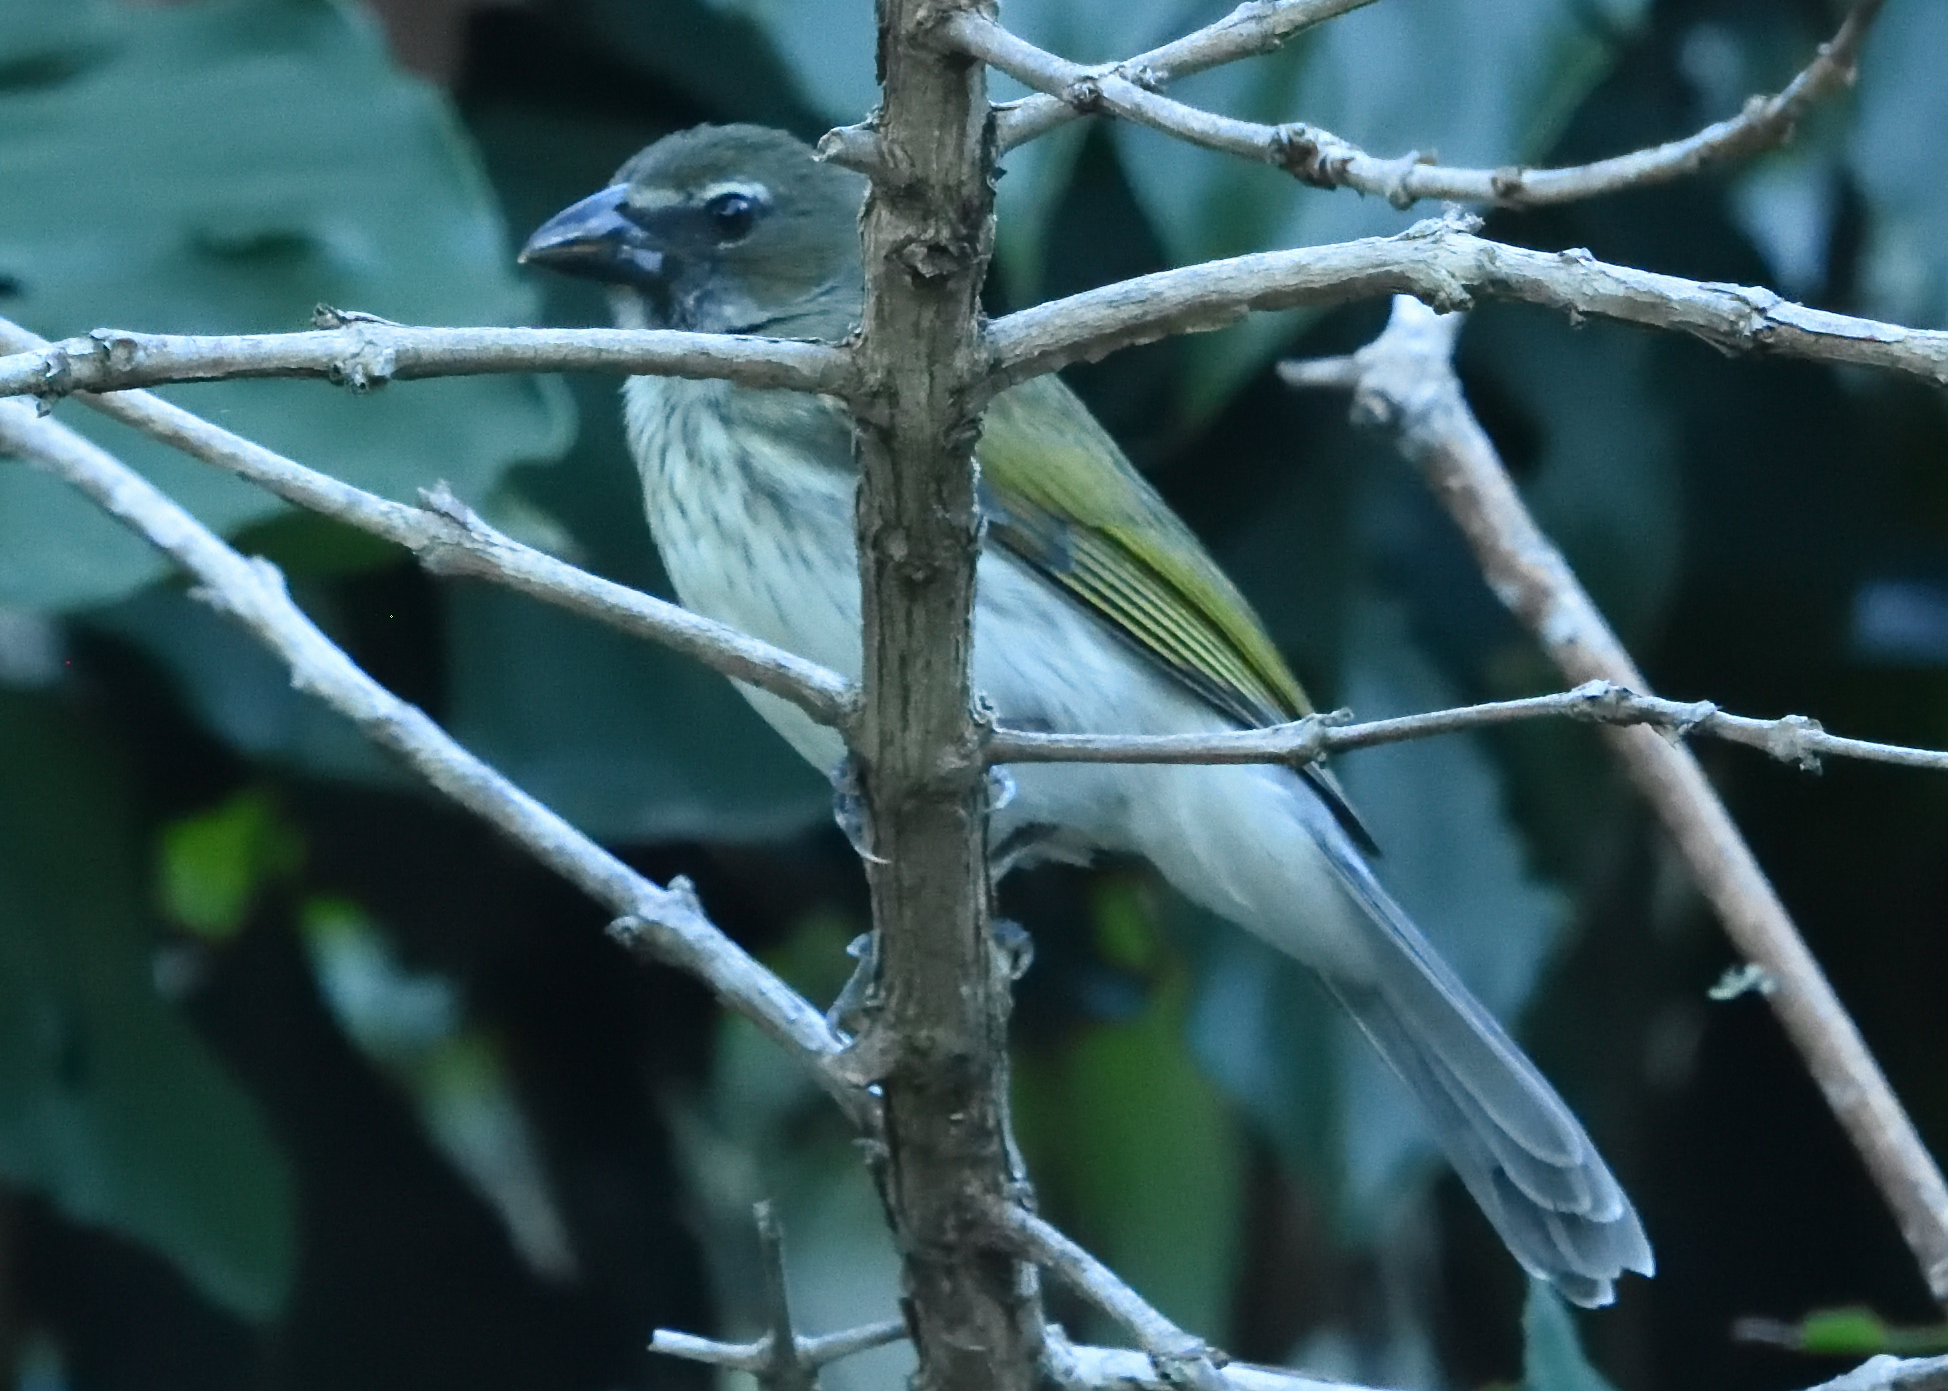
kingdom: Animalia
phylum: Chordata
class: Aves
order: Passeriformes
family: Thraupidae
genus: Saltator
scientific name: Saltator striatipectus
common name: Streaked saltator
